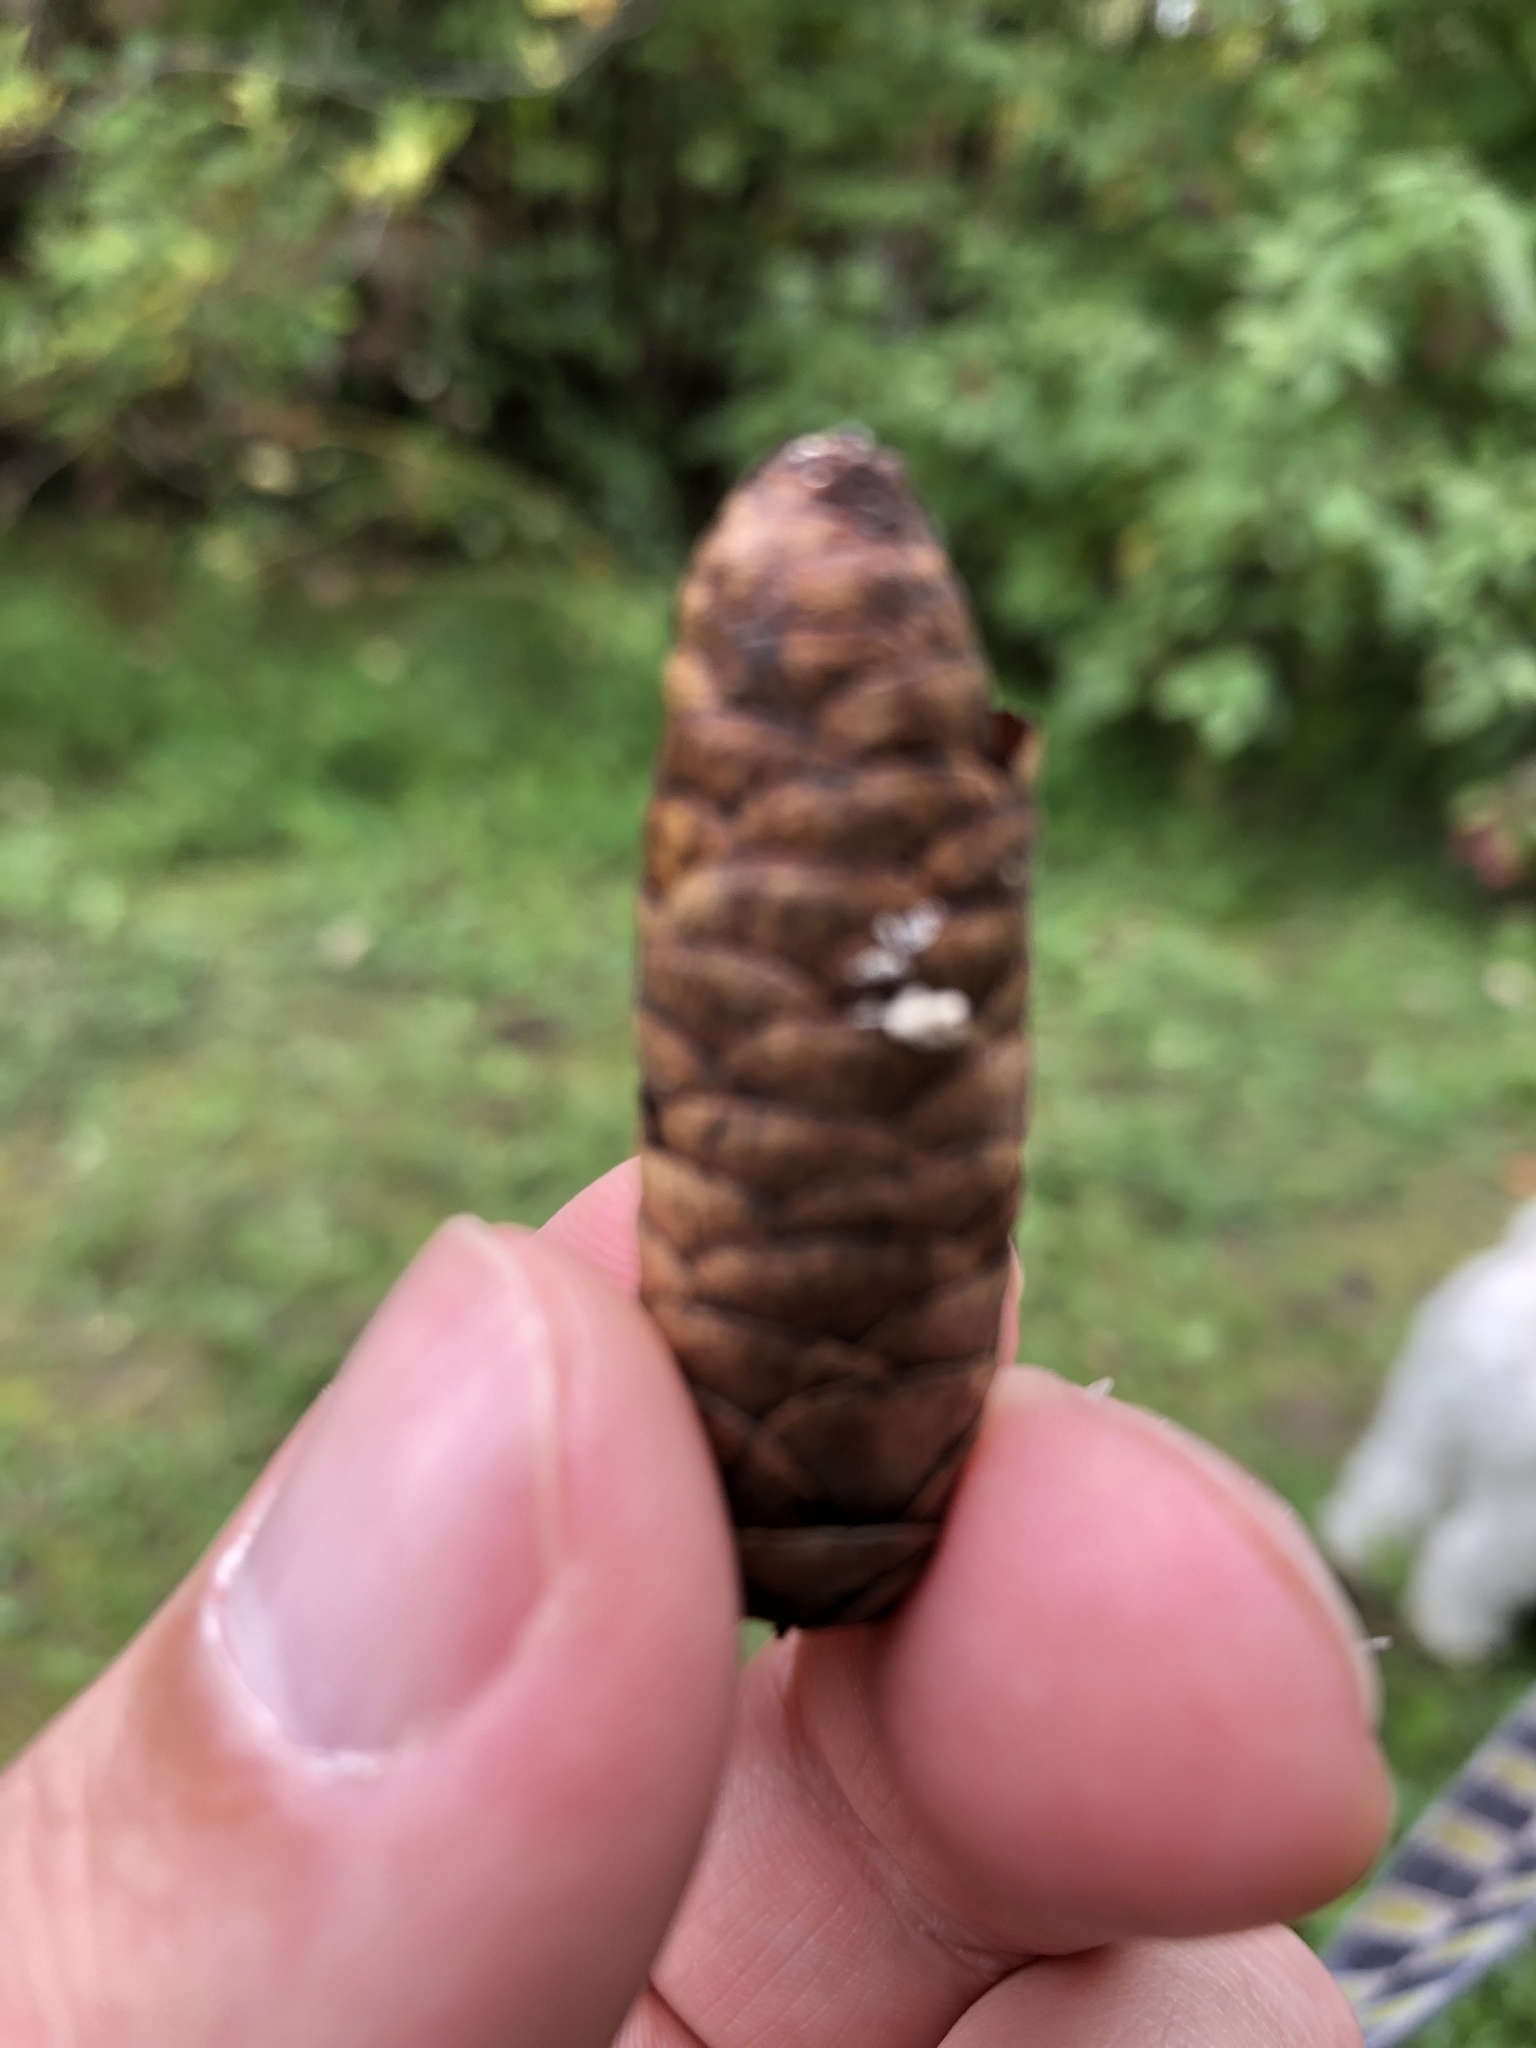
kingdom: Plantae
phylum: Tracheophyta
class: Pinopsida
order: Pinales
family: Pinaceae
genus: Picea
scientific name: Picea glauca
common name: White spruce
